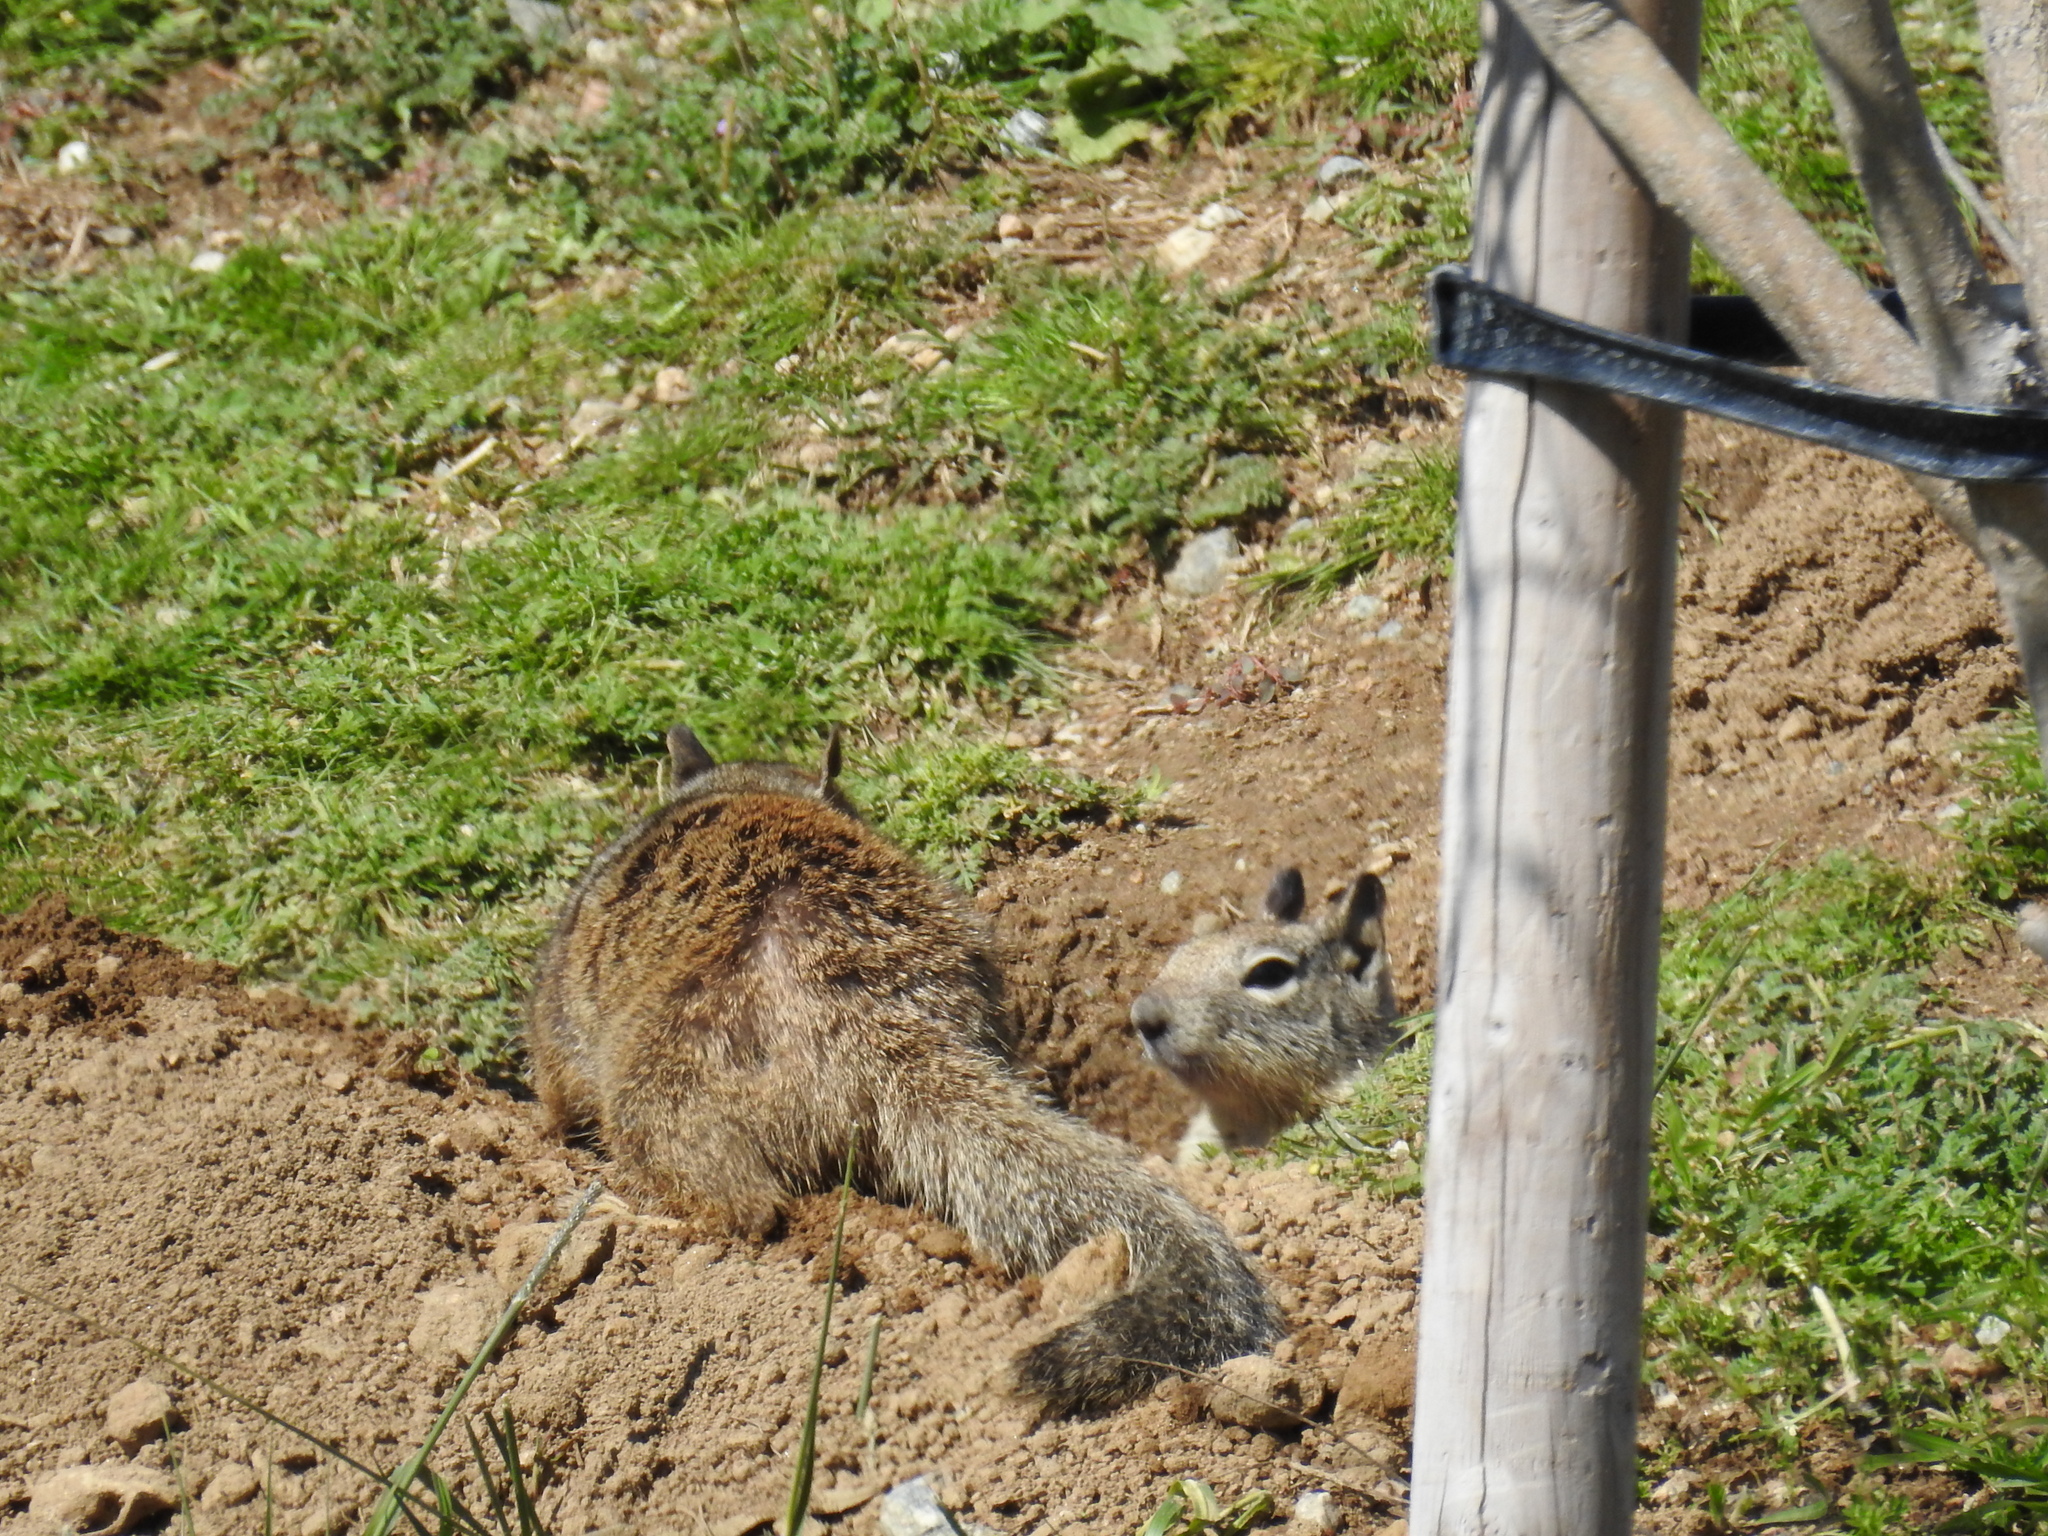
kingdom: Animalia
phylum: Chordata
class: Mammalia
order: Rodentia
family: Sciuridae
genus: Otospermophilus
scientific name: Otospermophilus beecheyi
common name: California ground squirrel
